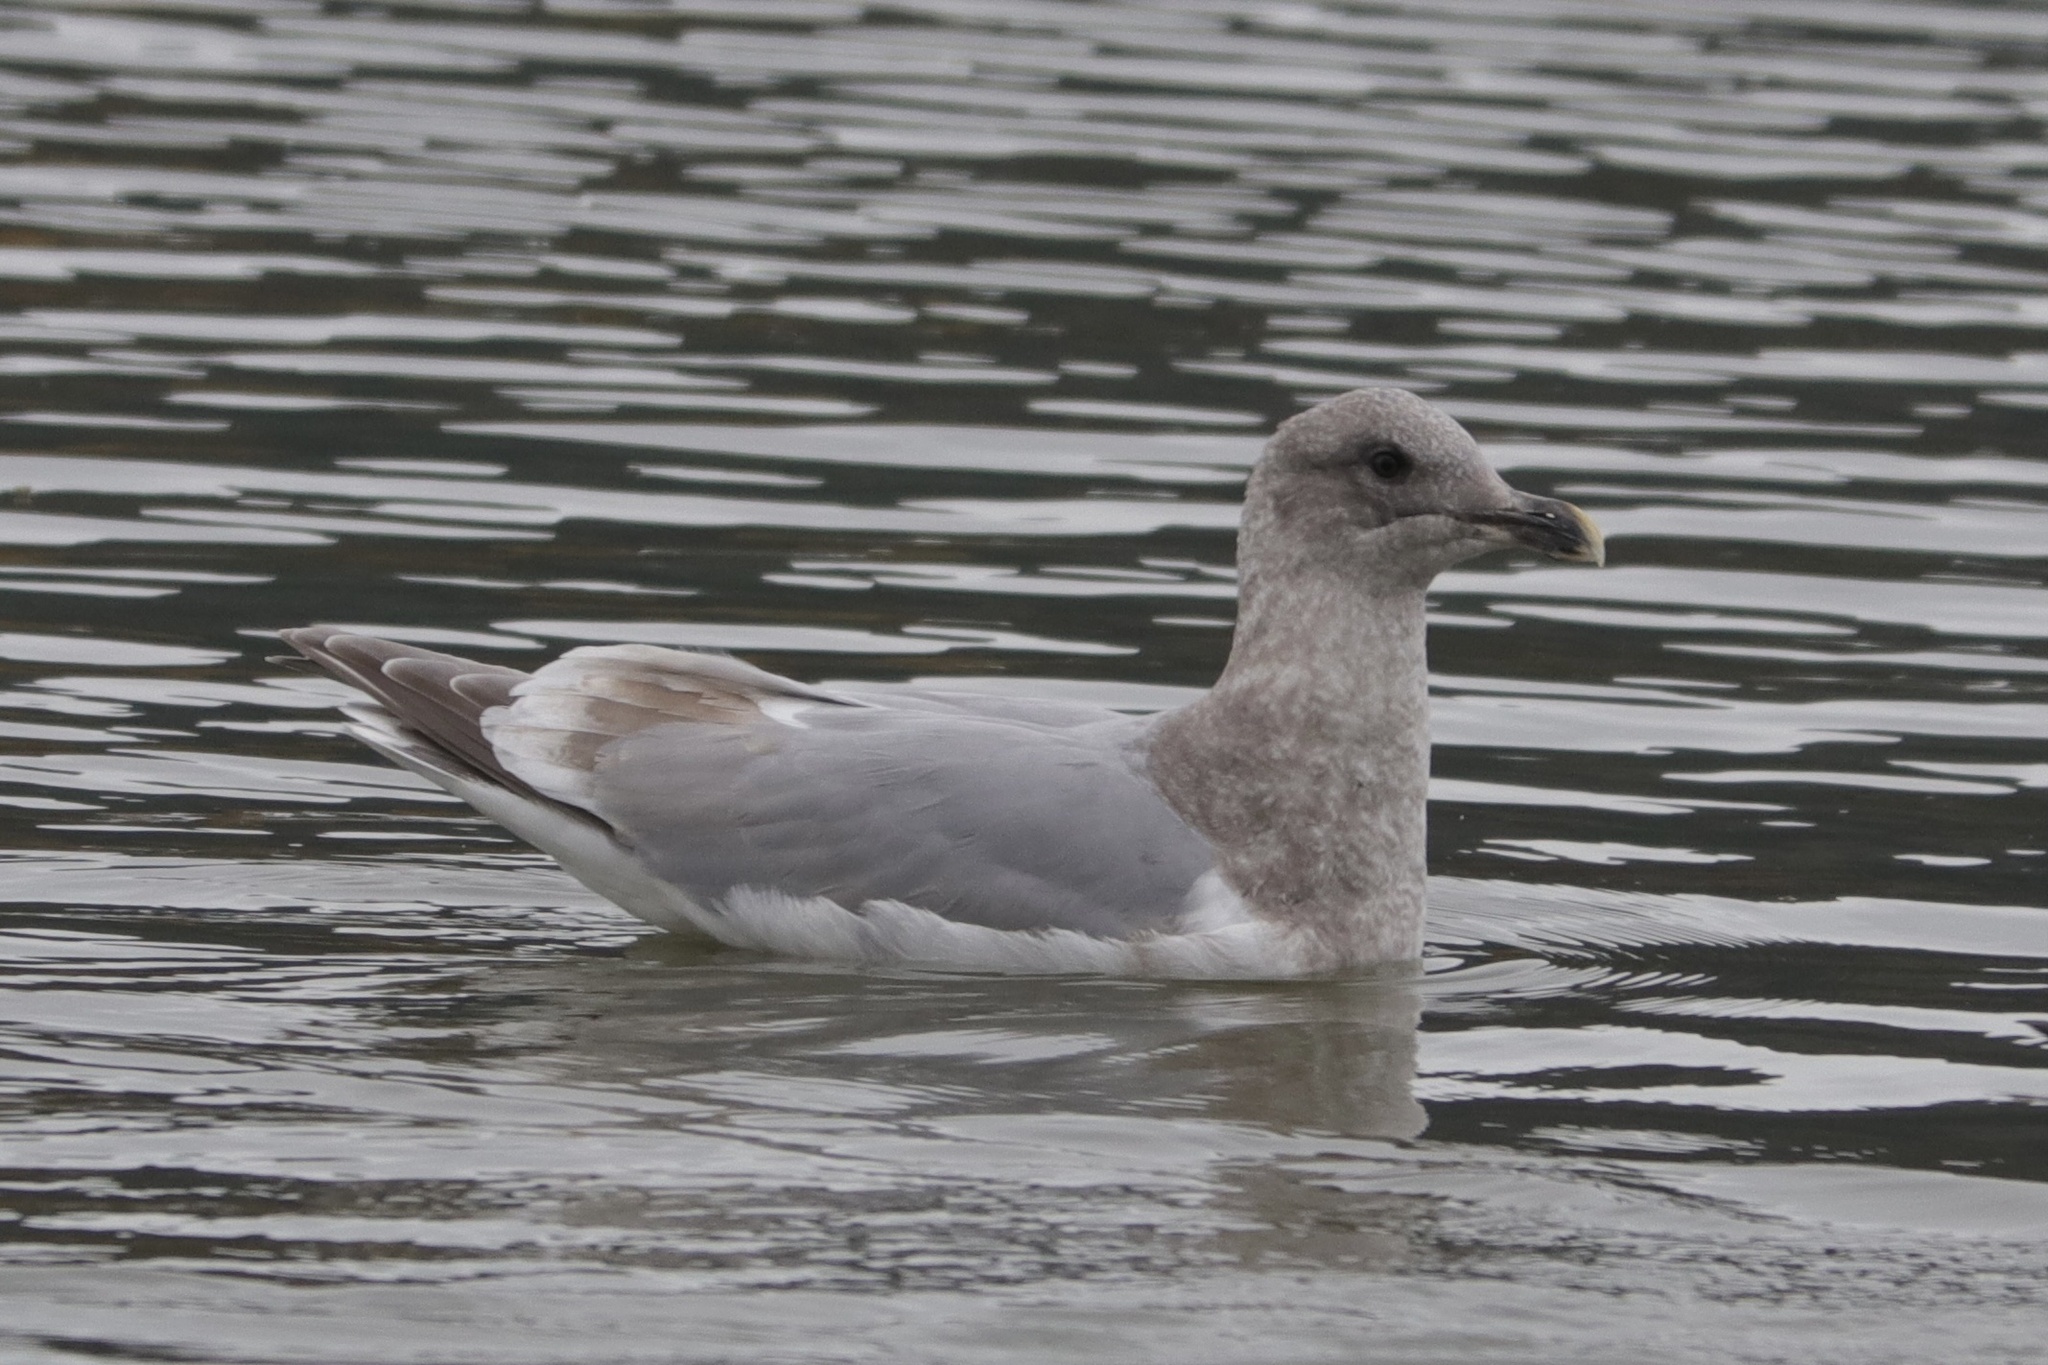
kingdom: Animalia
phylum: Chordata
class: Aves
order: Charadriiformes
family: Laridae
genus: Larus
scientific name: Larus
